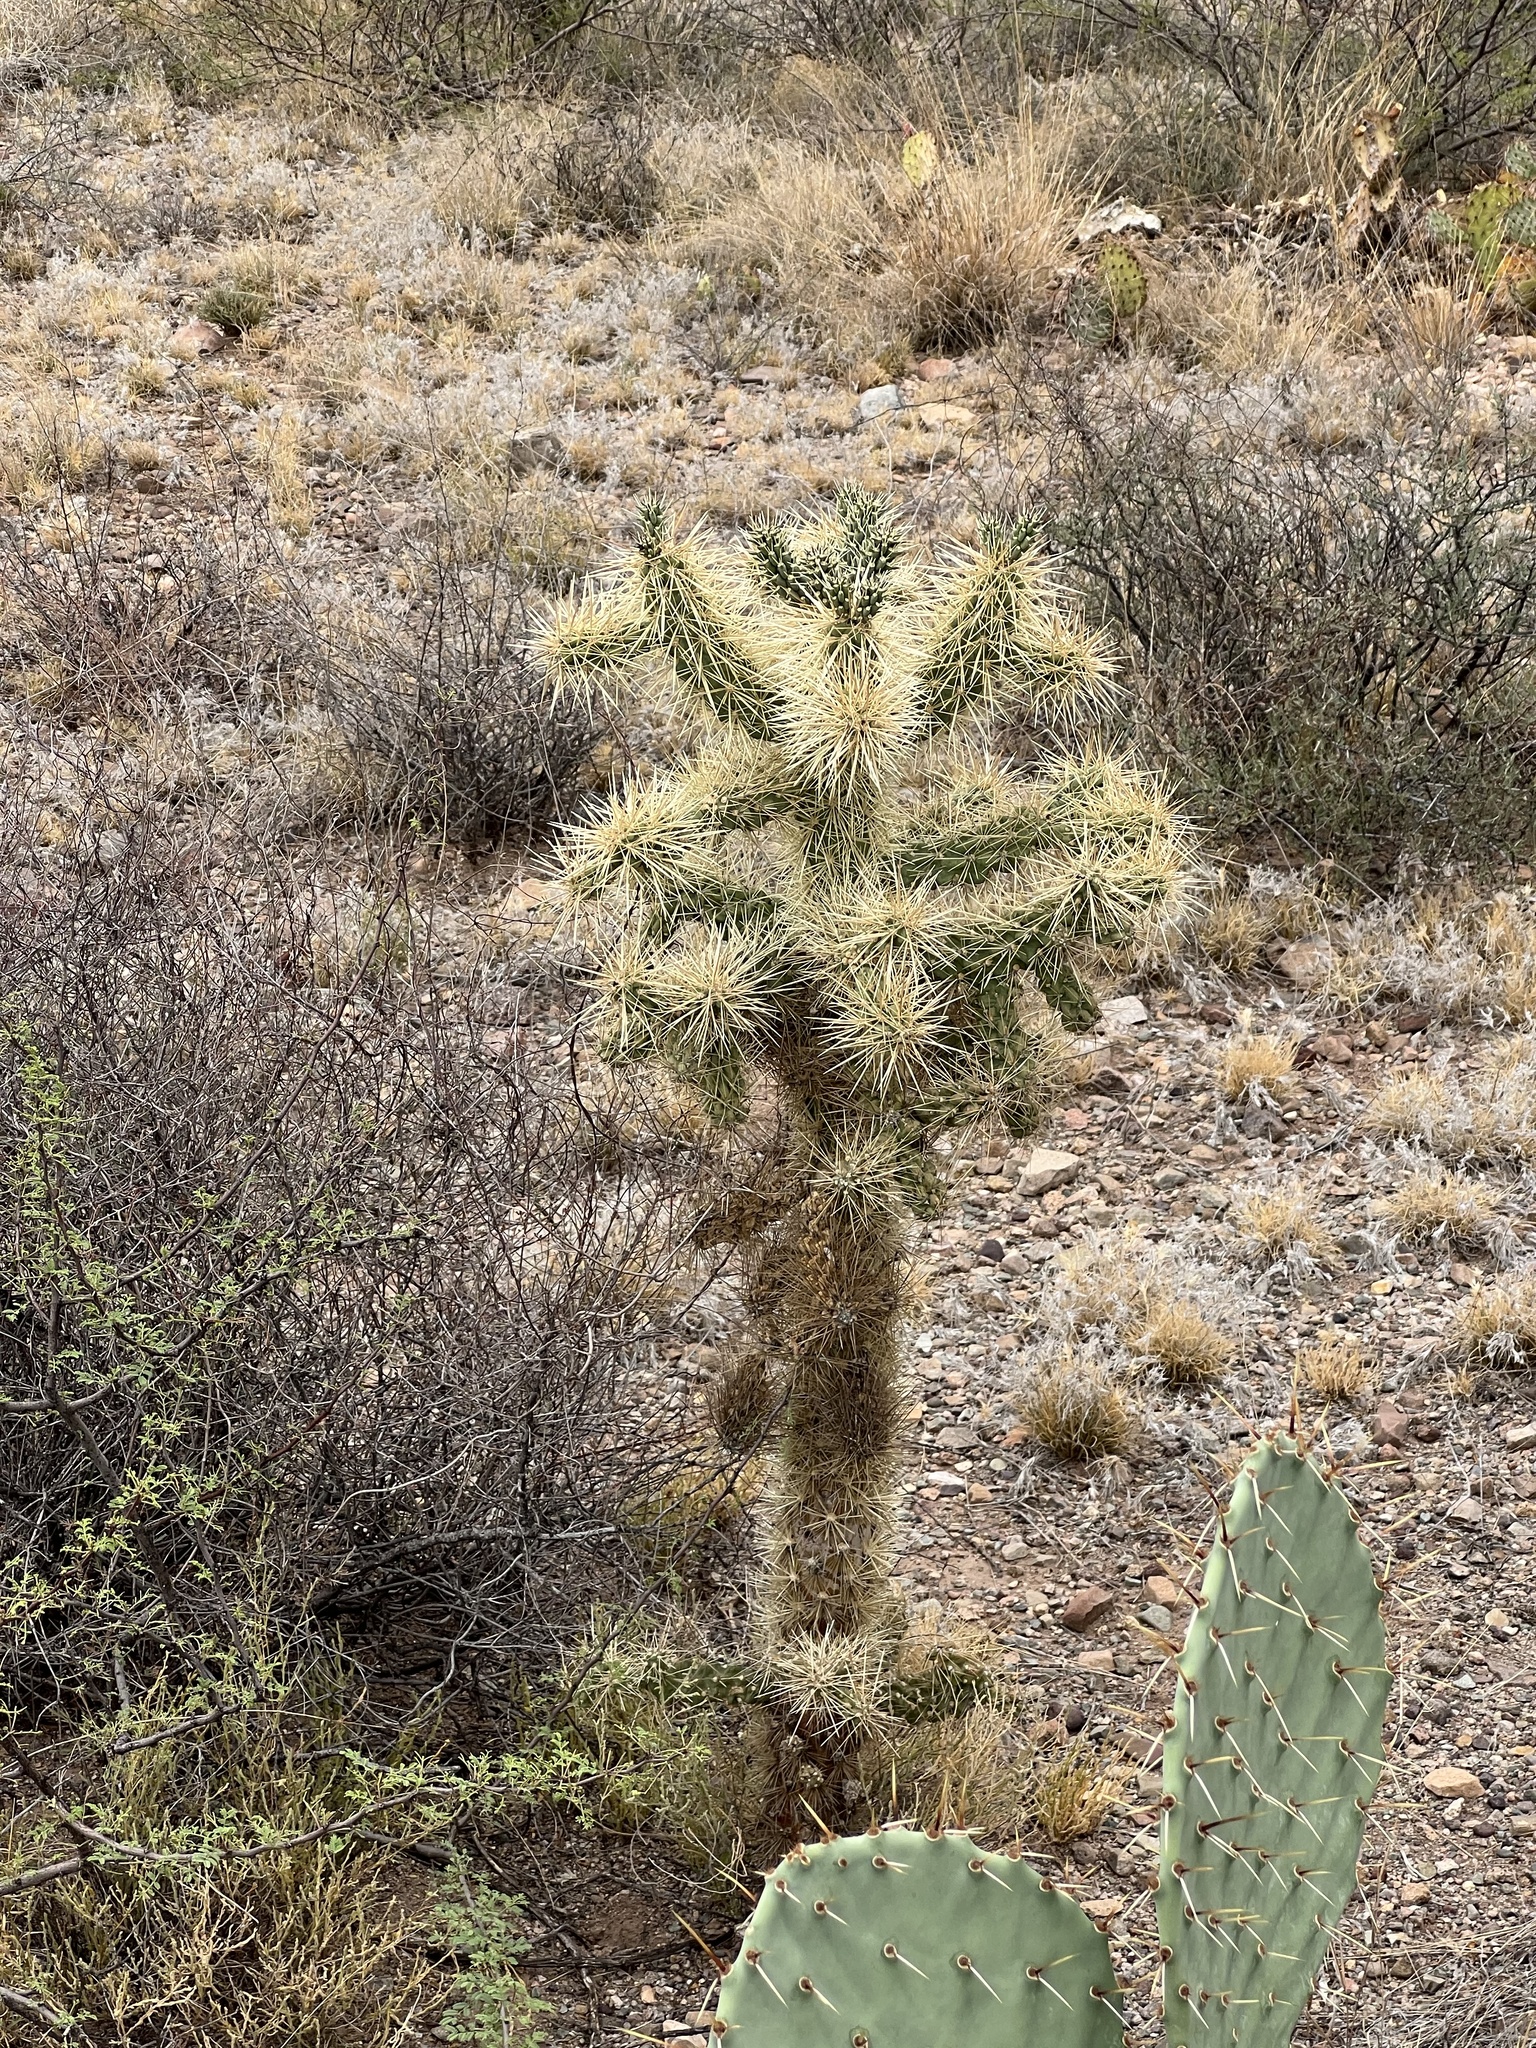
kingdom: Plantae
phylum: Tracheophyta
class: Magnoliopsida
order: Caryophyllales
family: Cactaceae
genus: Cylindropuntia
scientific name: Cylindropuntia fulgida
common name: Jumping cholla
